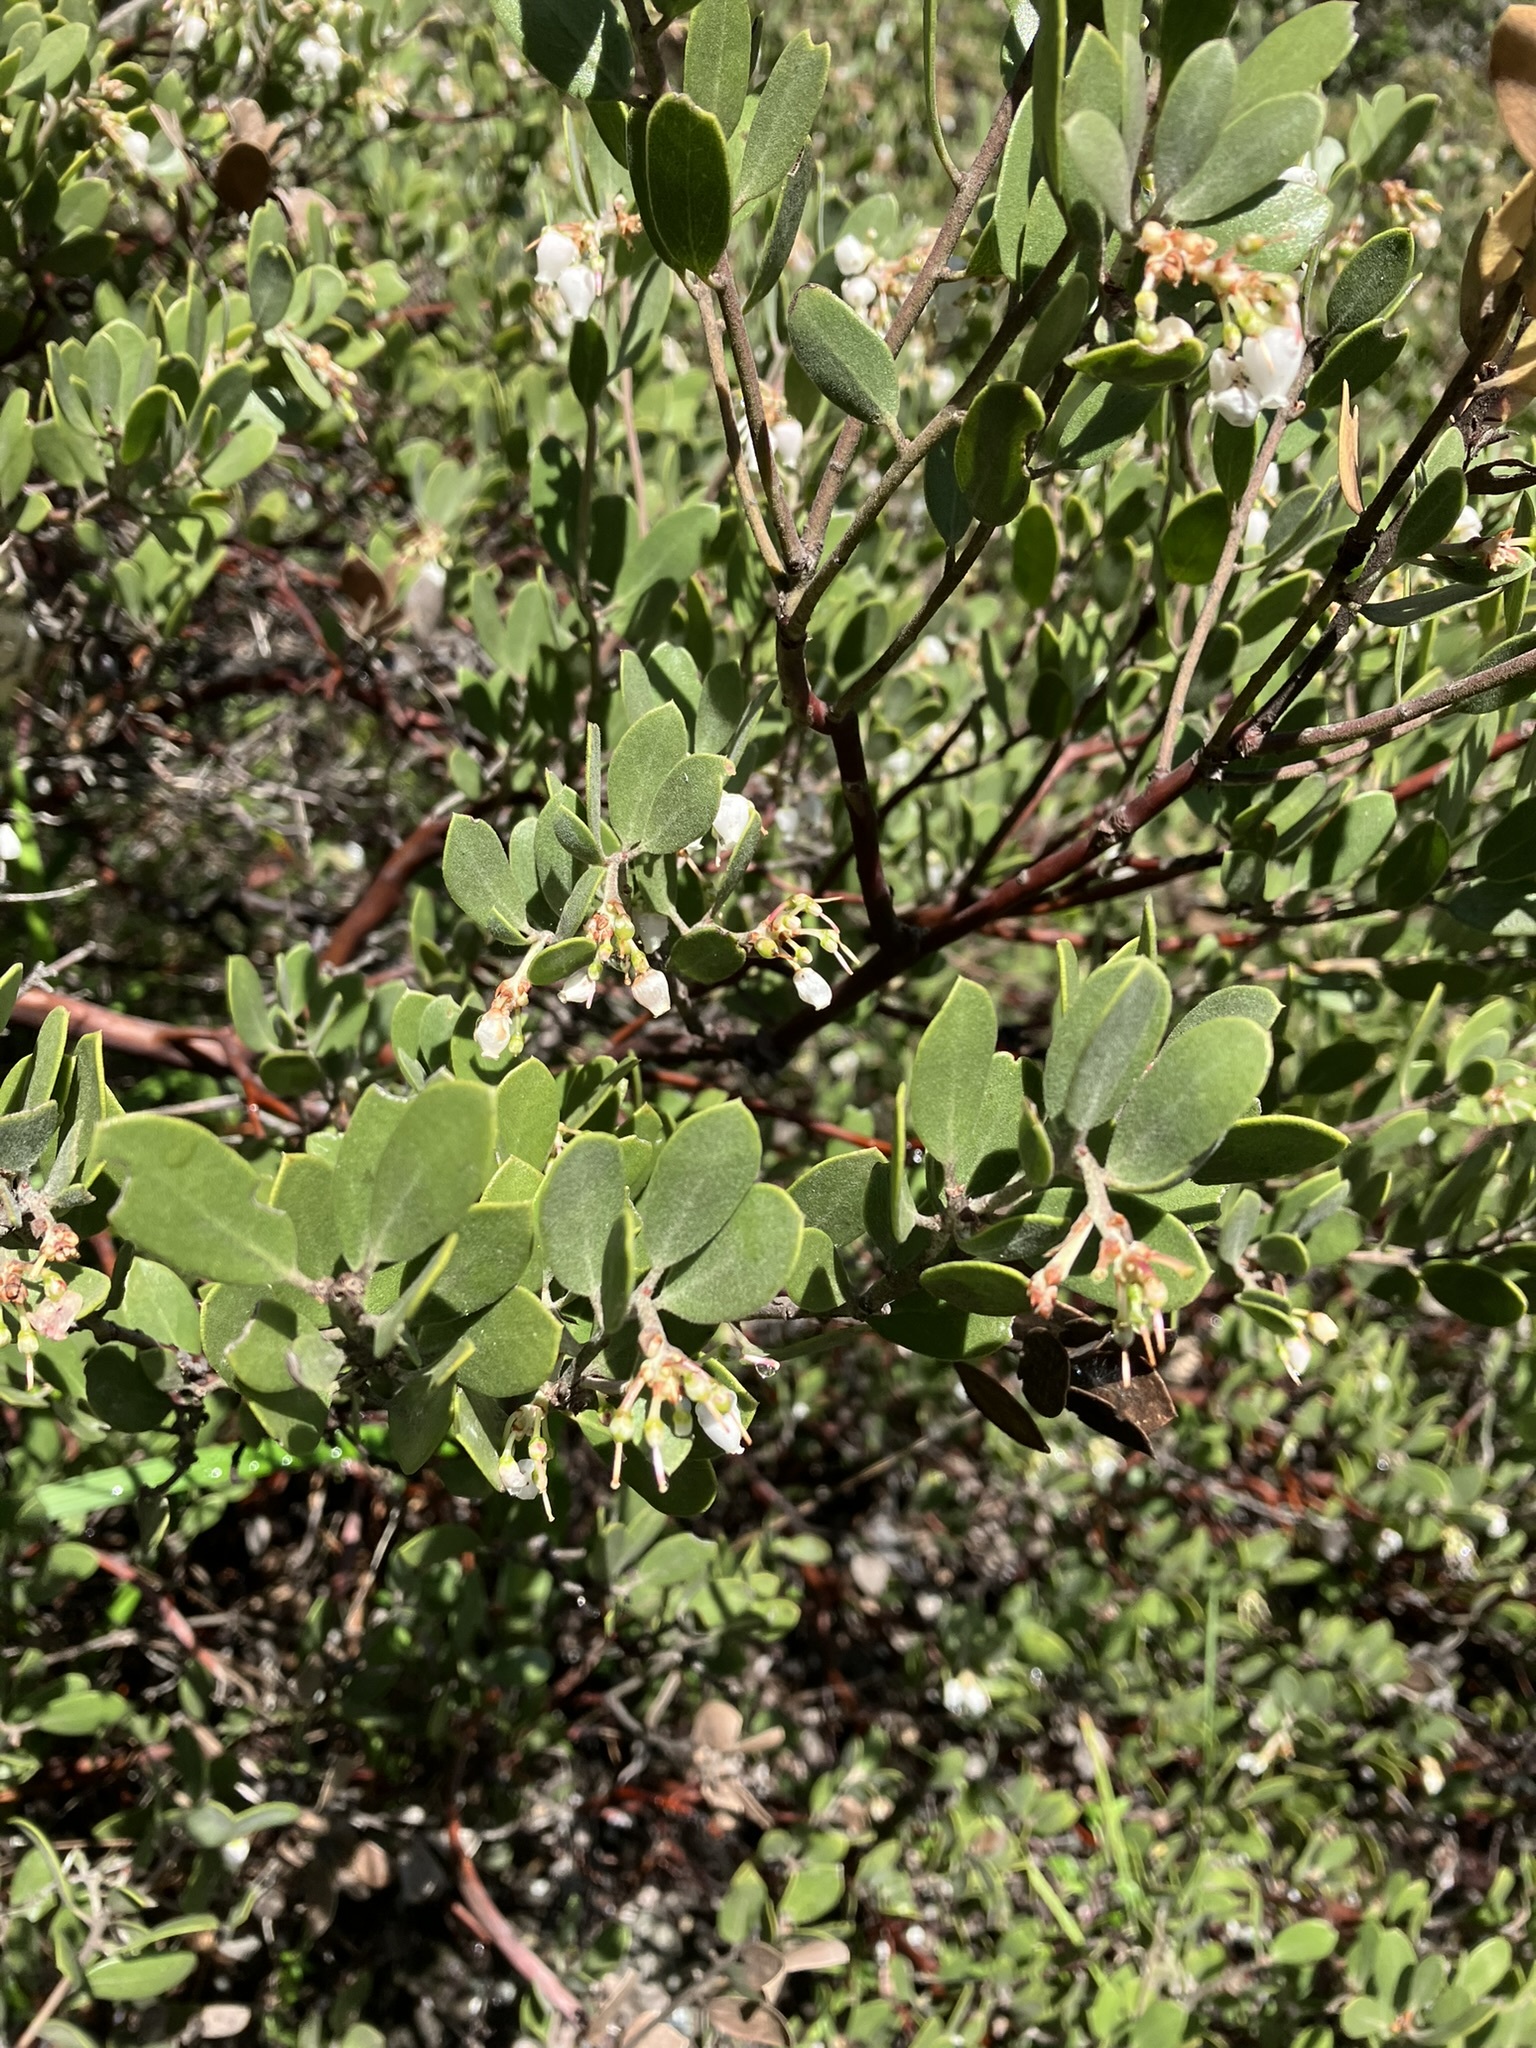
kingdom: Plantae
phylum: Tracheophyta
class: Magnoliopsida
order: Ericales
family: Ericaceae
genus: Arctostaphylos
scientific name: Arctostaphylos montana
